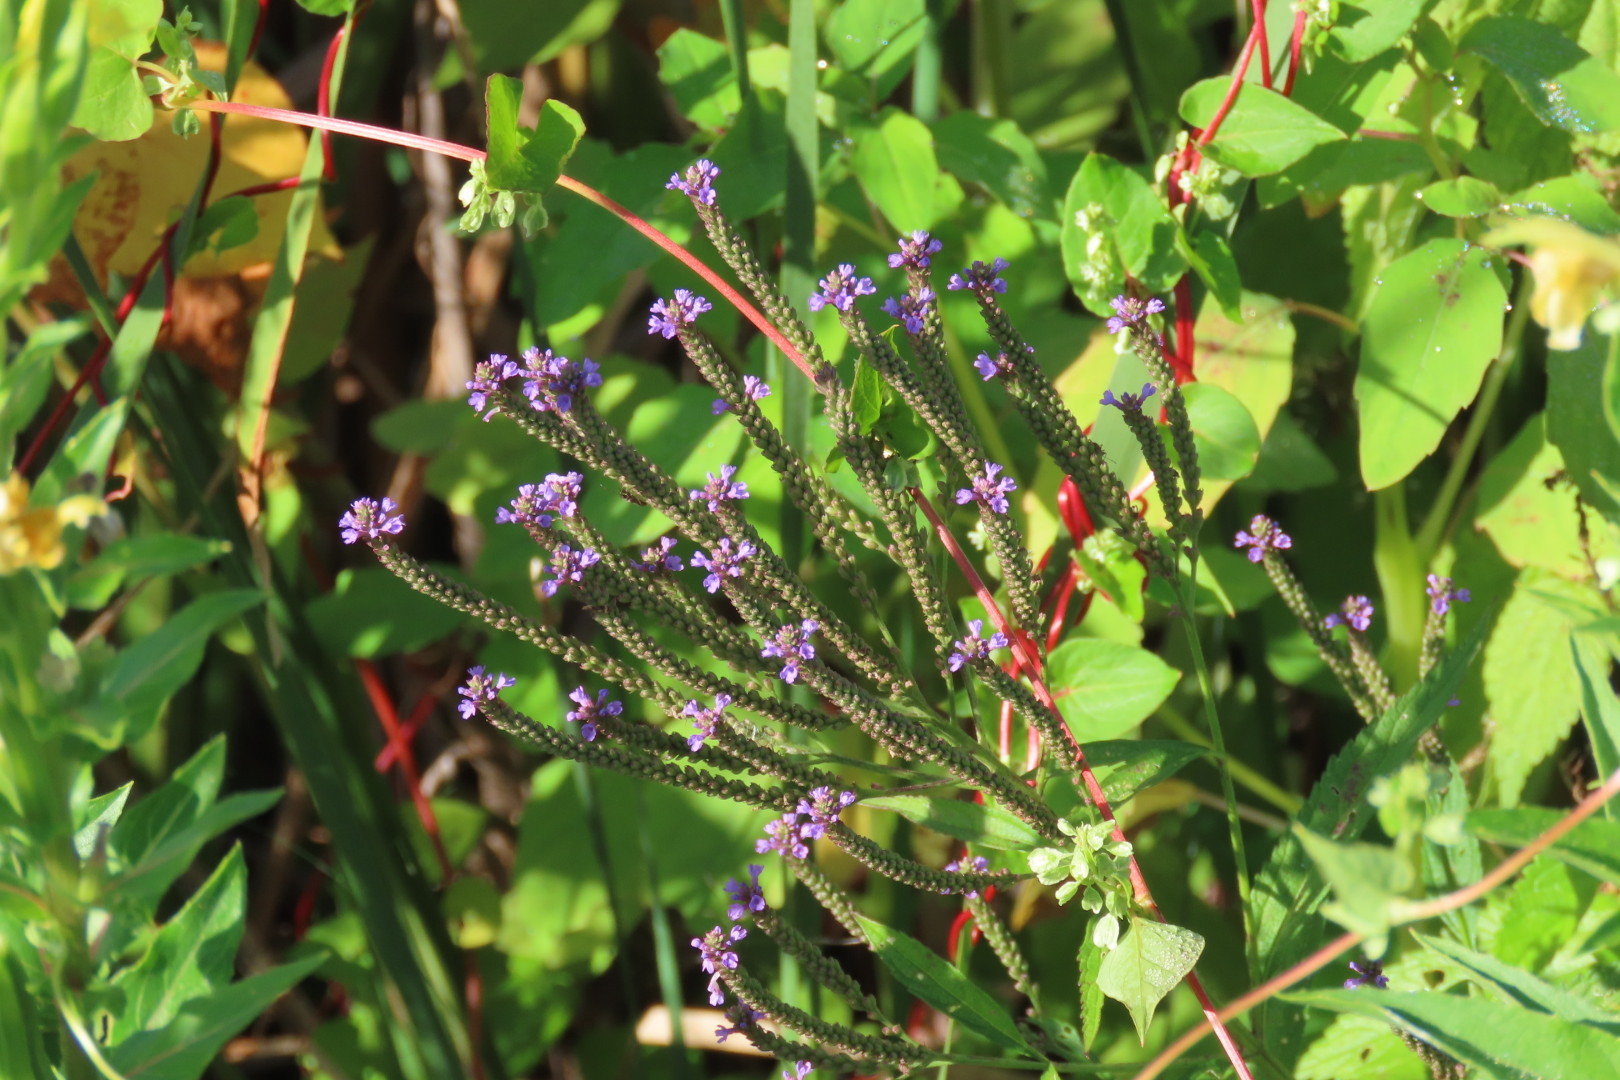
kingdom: Plantae
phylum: Tracheophyta
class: Magnoliopsida
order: Lamiales
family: Verbenaceae
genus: Verbena
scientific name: Verbena hastata
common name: American blue vervain
